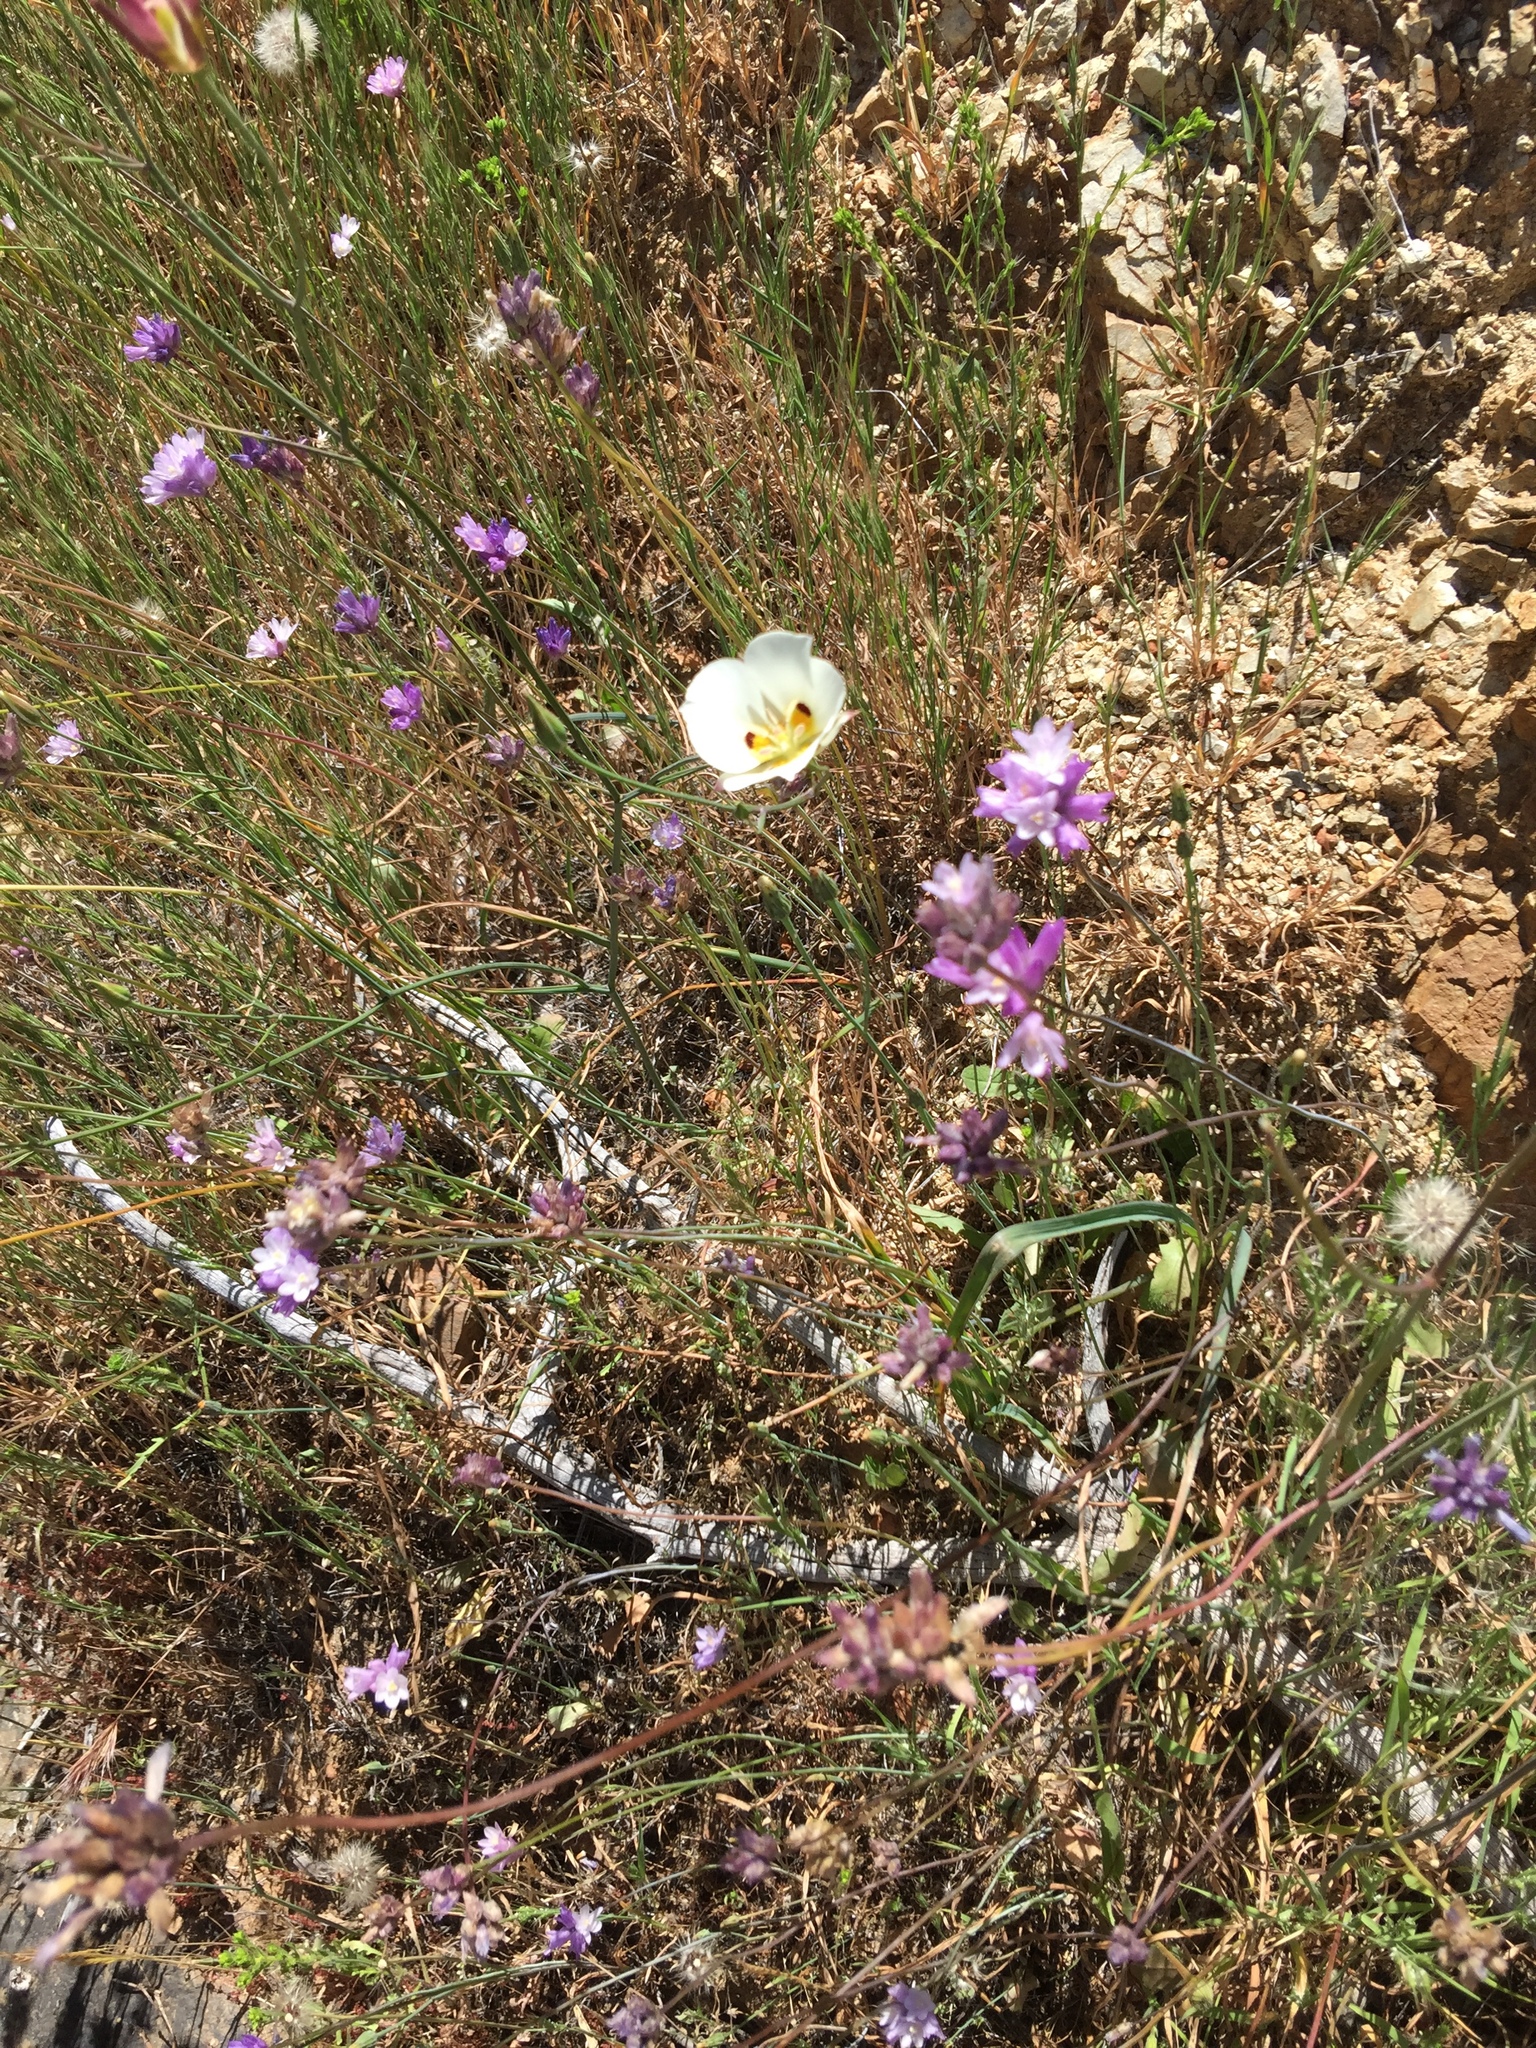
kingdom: Plantae
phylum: Tracheophyta
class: Liliopsida
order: Liliales
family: Liliaceae
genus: Calochortus
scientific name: Calochortus dunnii
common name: Dunn's mariposa-lily
